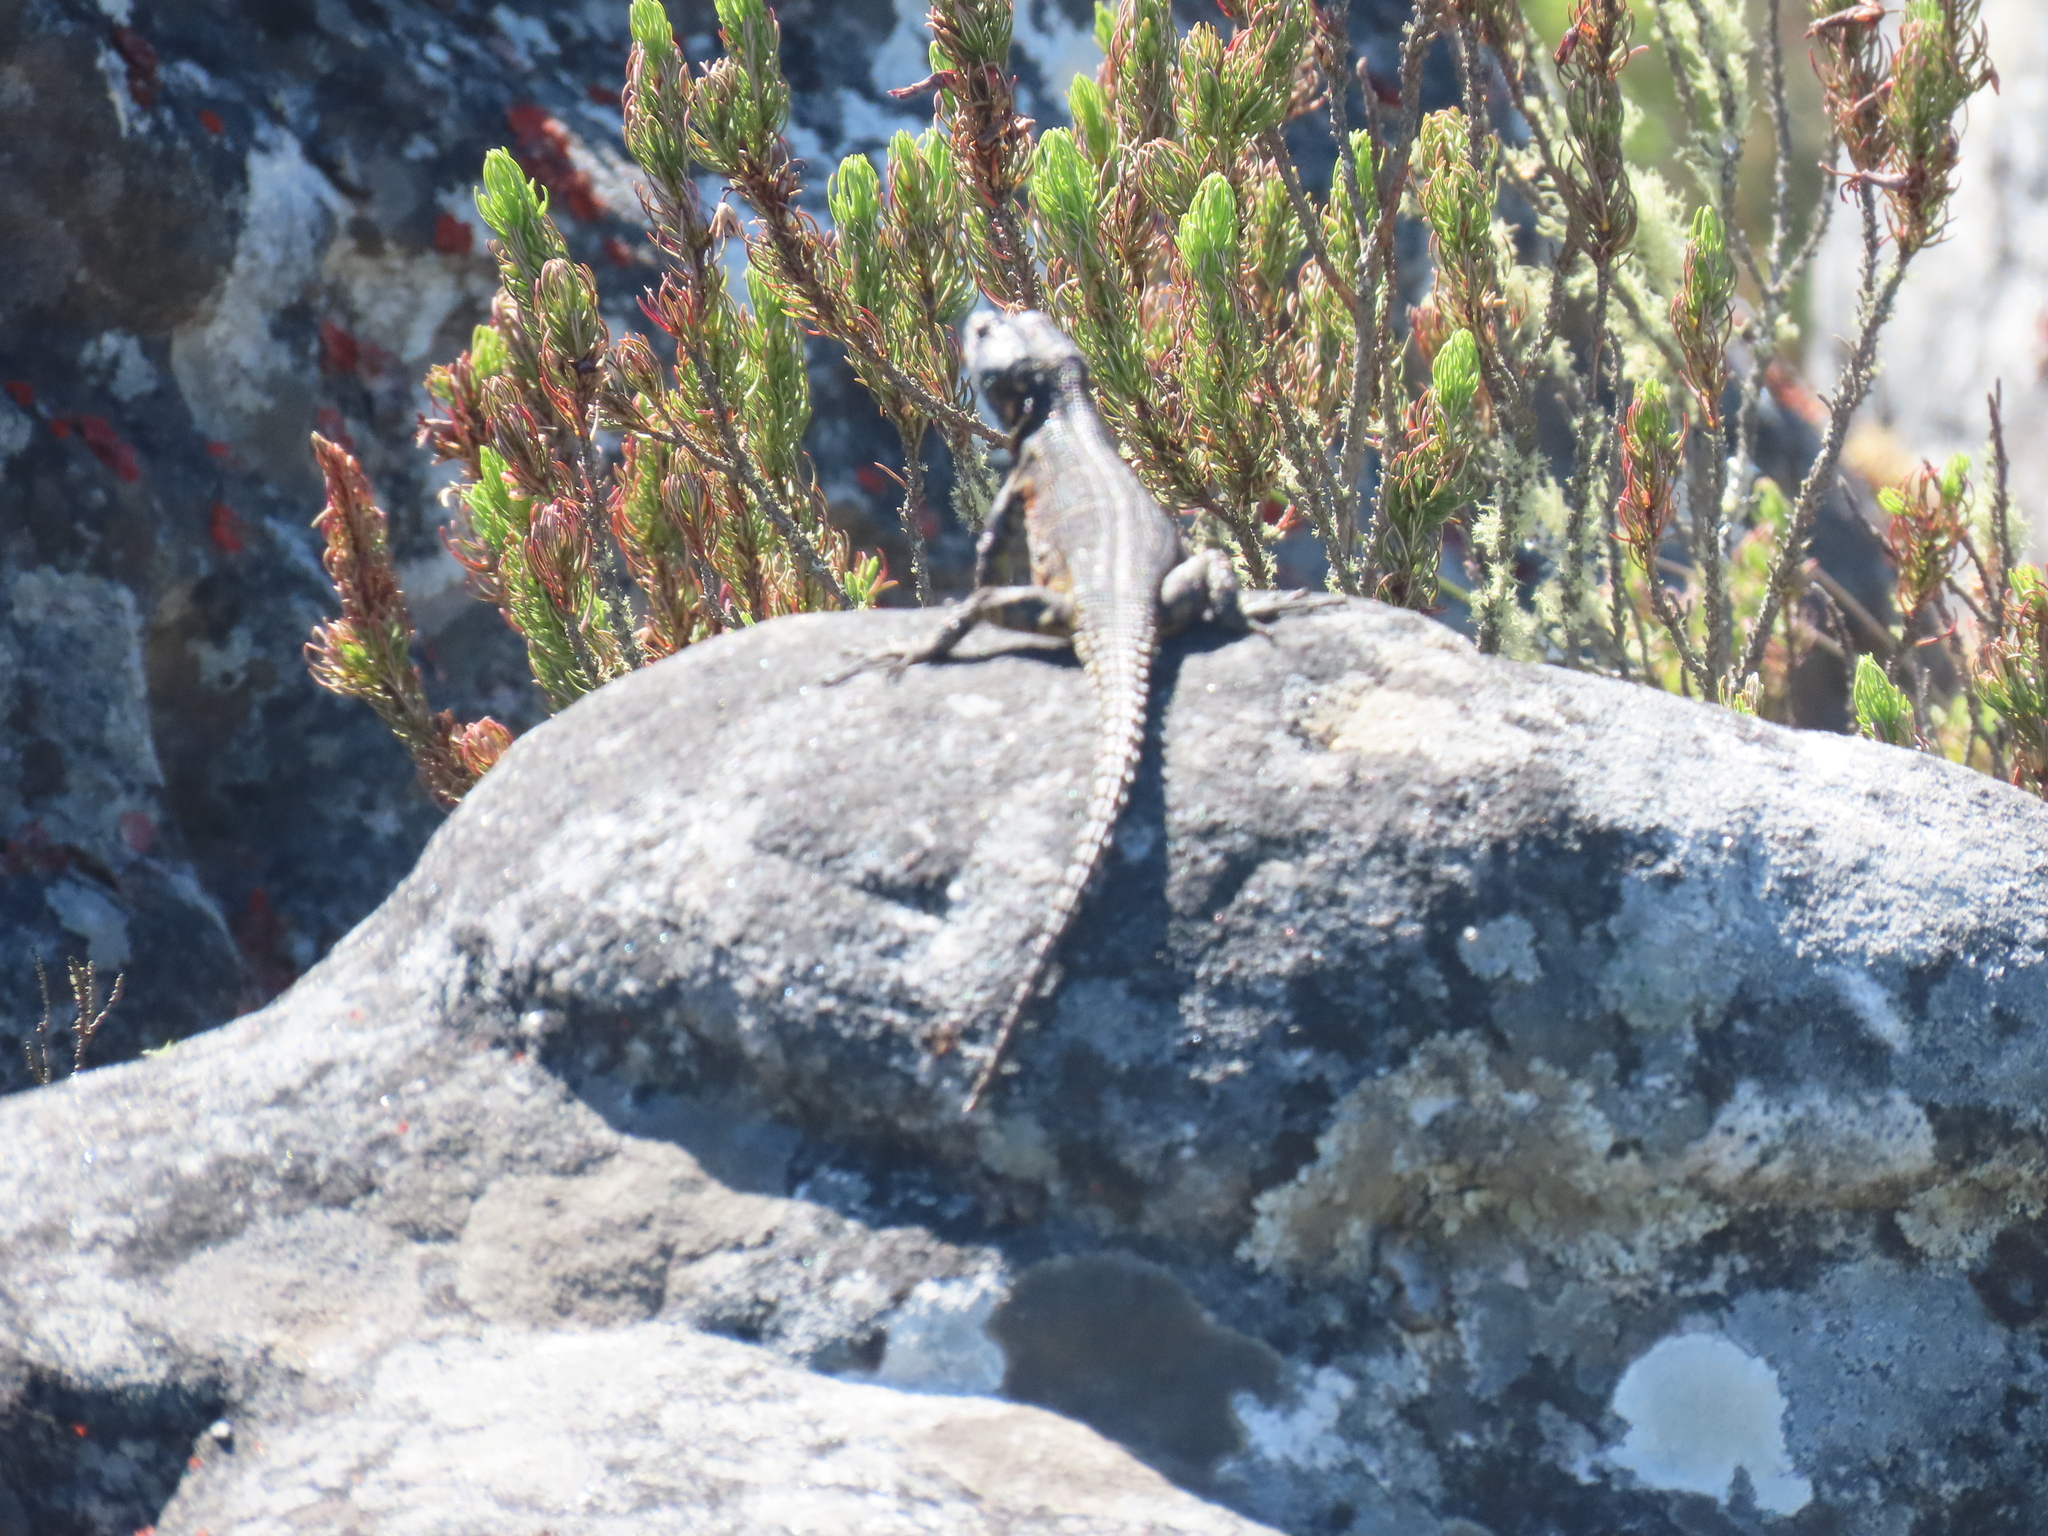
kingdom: Animalia
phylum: Chordata
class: Squamata
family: Cordylidae
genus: Pseudocordylus
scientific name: Pseudocordylus microlepidotus
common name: Cape crag lizard
